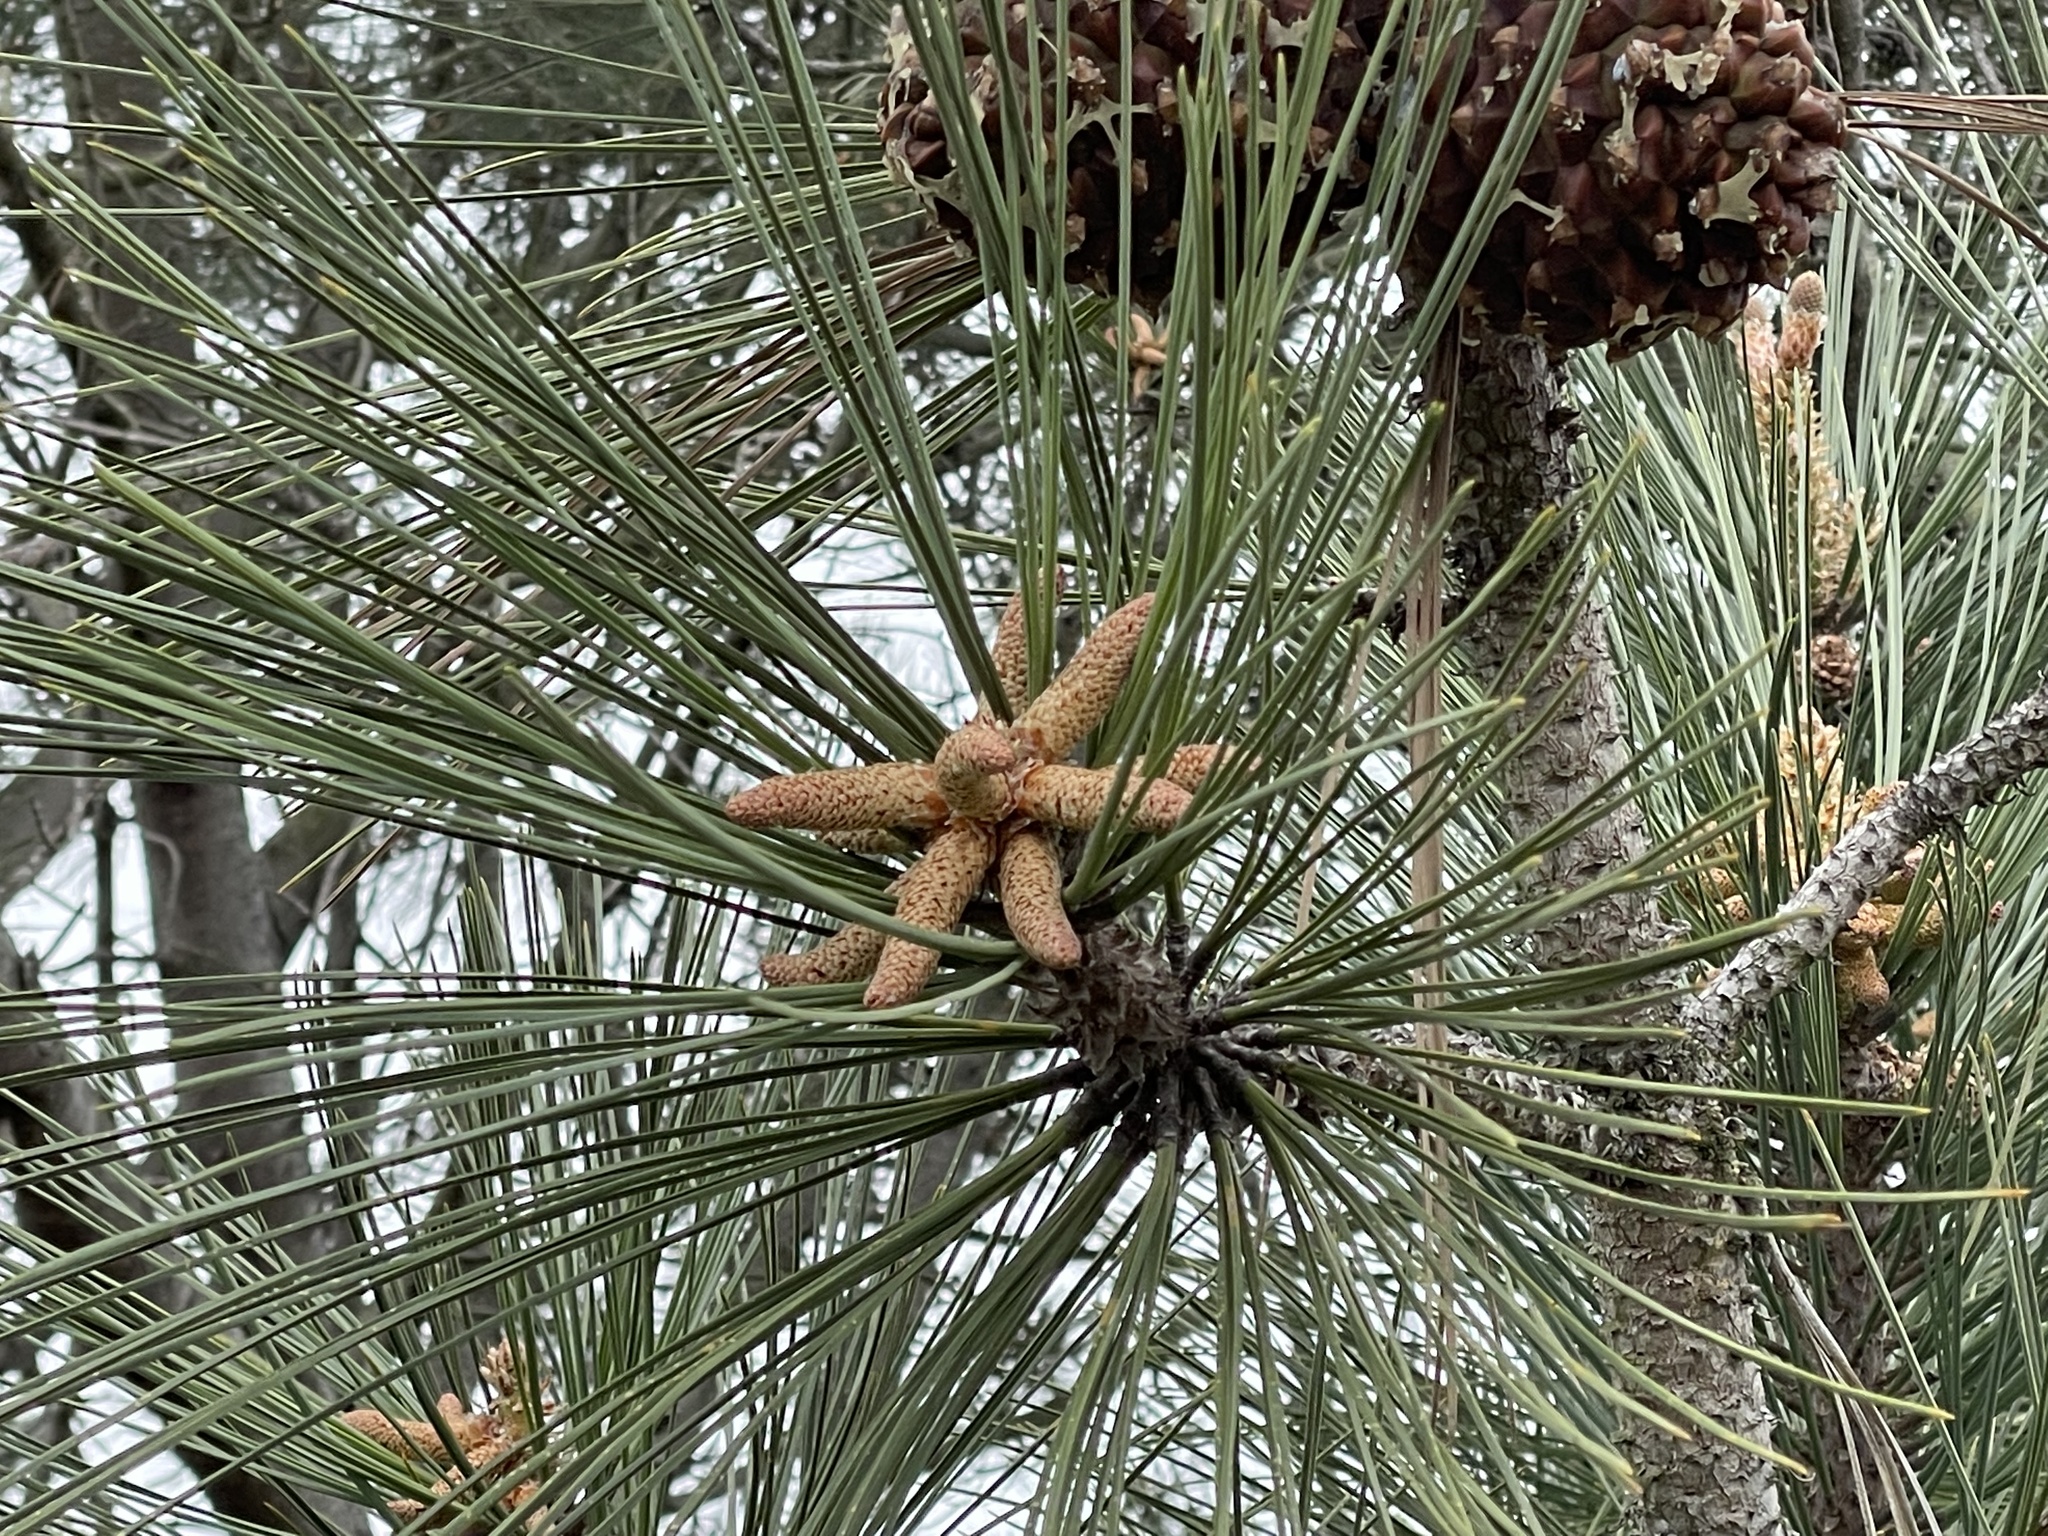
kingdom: Plantae
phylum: Tracheophyta
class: Pinopsida
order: Pinales
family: Pinaceae
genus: Pinus
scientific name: Pinus torreyana
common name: Torrey pine
